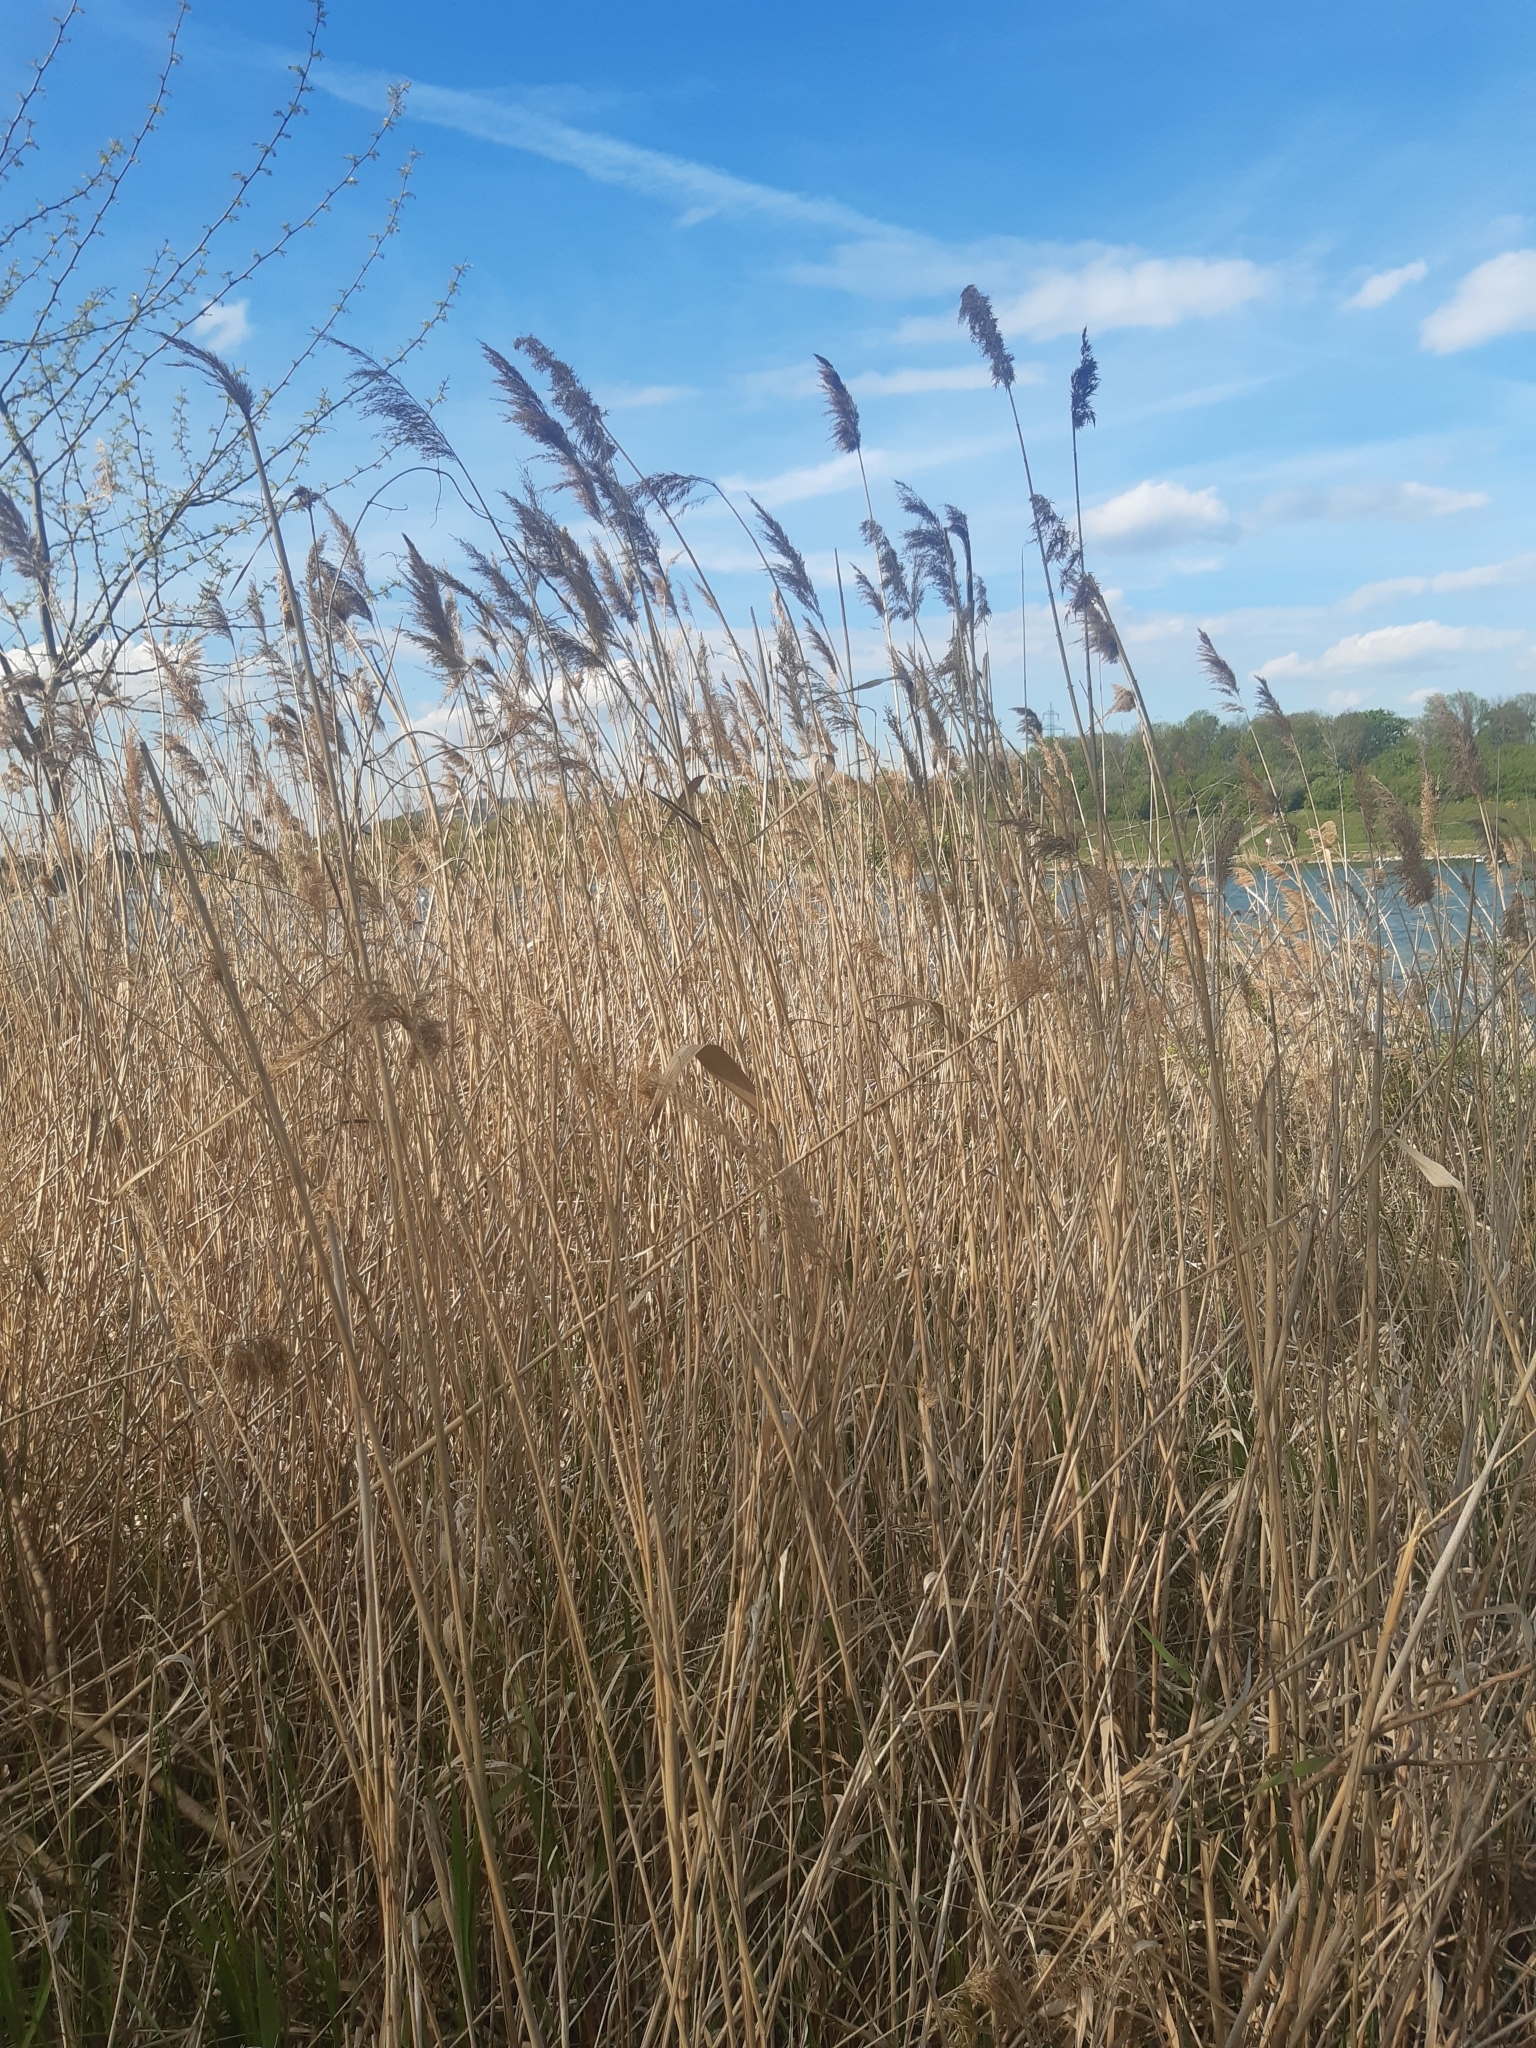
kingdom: Plantae
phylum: Tracheophyta
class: Liliopsida
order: Poales
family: Poaceae
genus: Phragmites
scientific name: Phragmites australis
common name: Common reed
